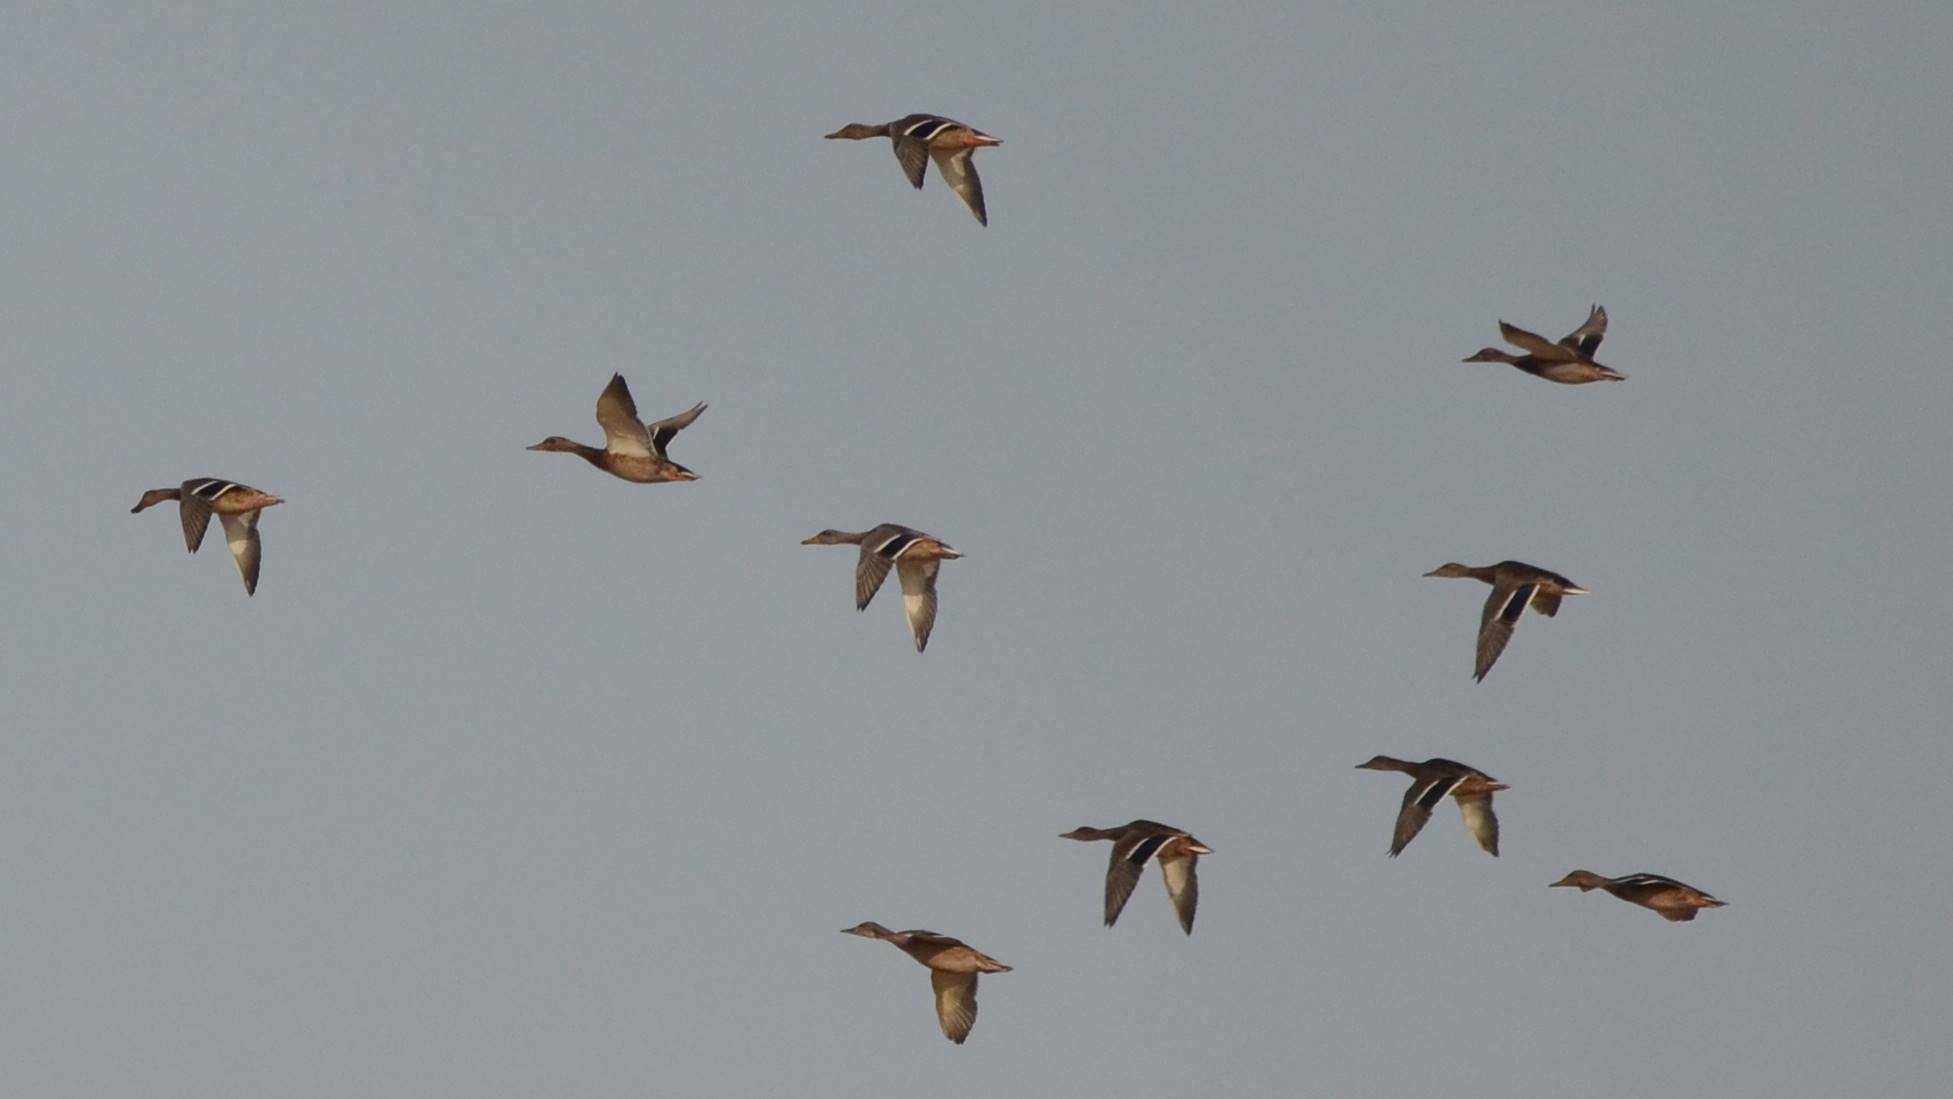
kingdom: Animalia
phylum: Chordata
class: Aves
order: Anseriformes
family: Anatidae
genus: Anas
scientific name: Anas platyrhynchos
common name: Mallard
